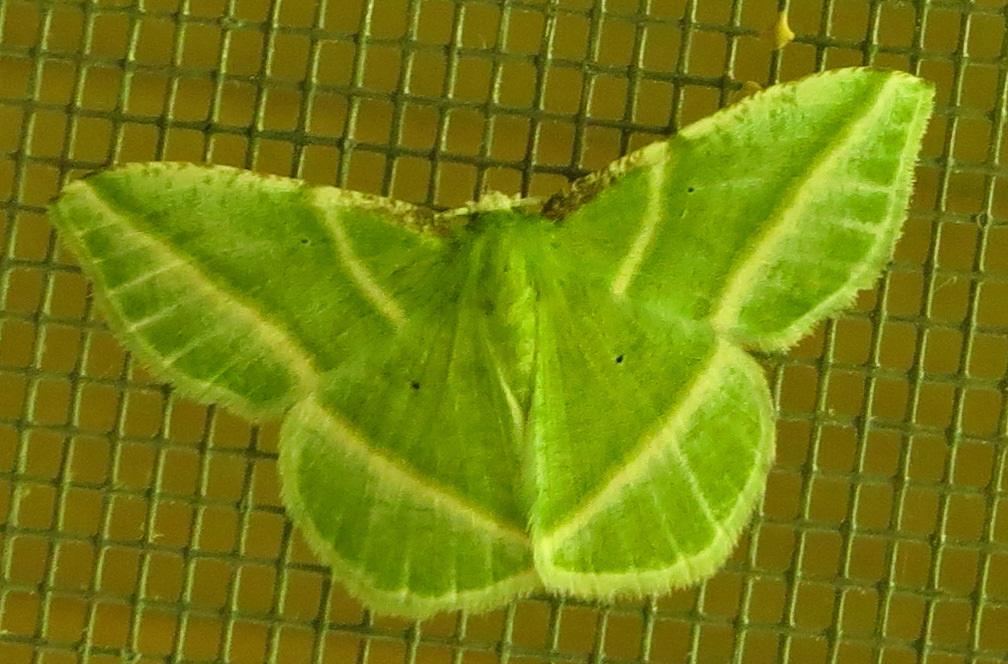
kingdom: Animalia
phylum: Arthropoda
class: Insecta
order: Lepidoptera
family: Geometridae
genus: Dichorda
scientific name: Dichorda iridaria
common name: Showy emerald
